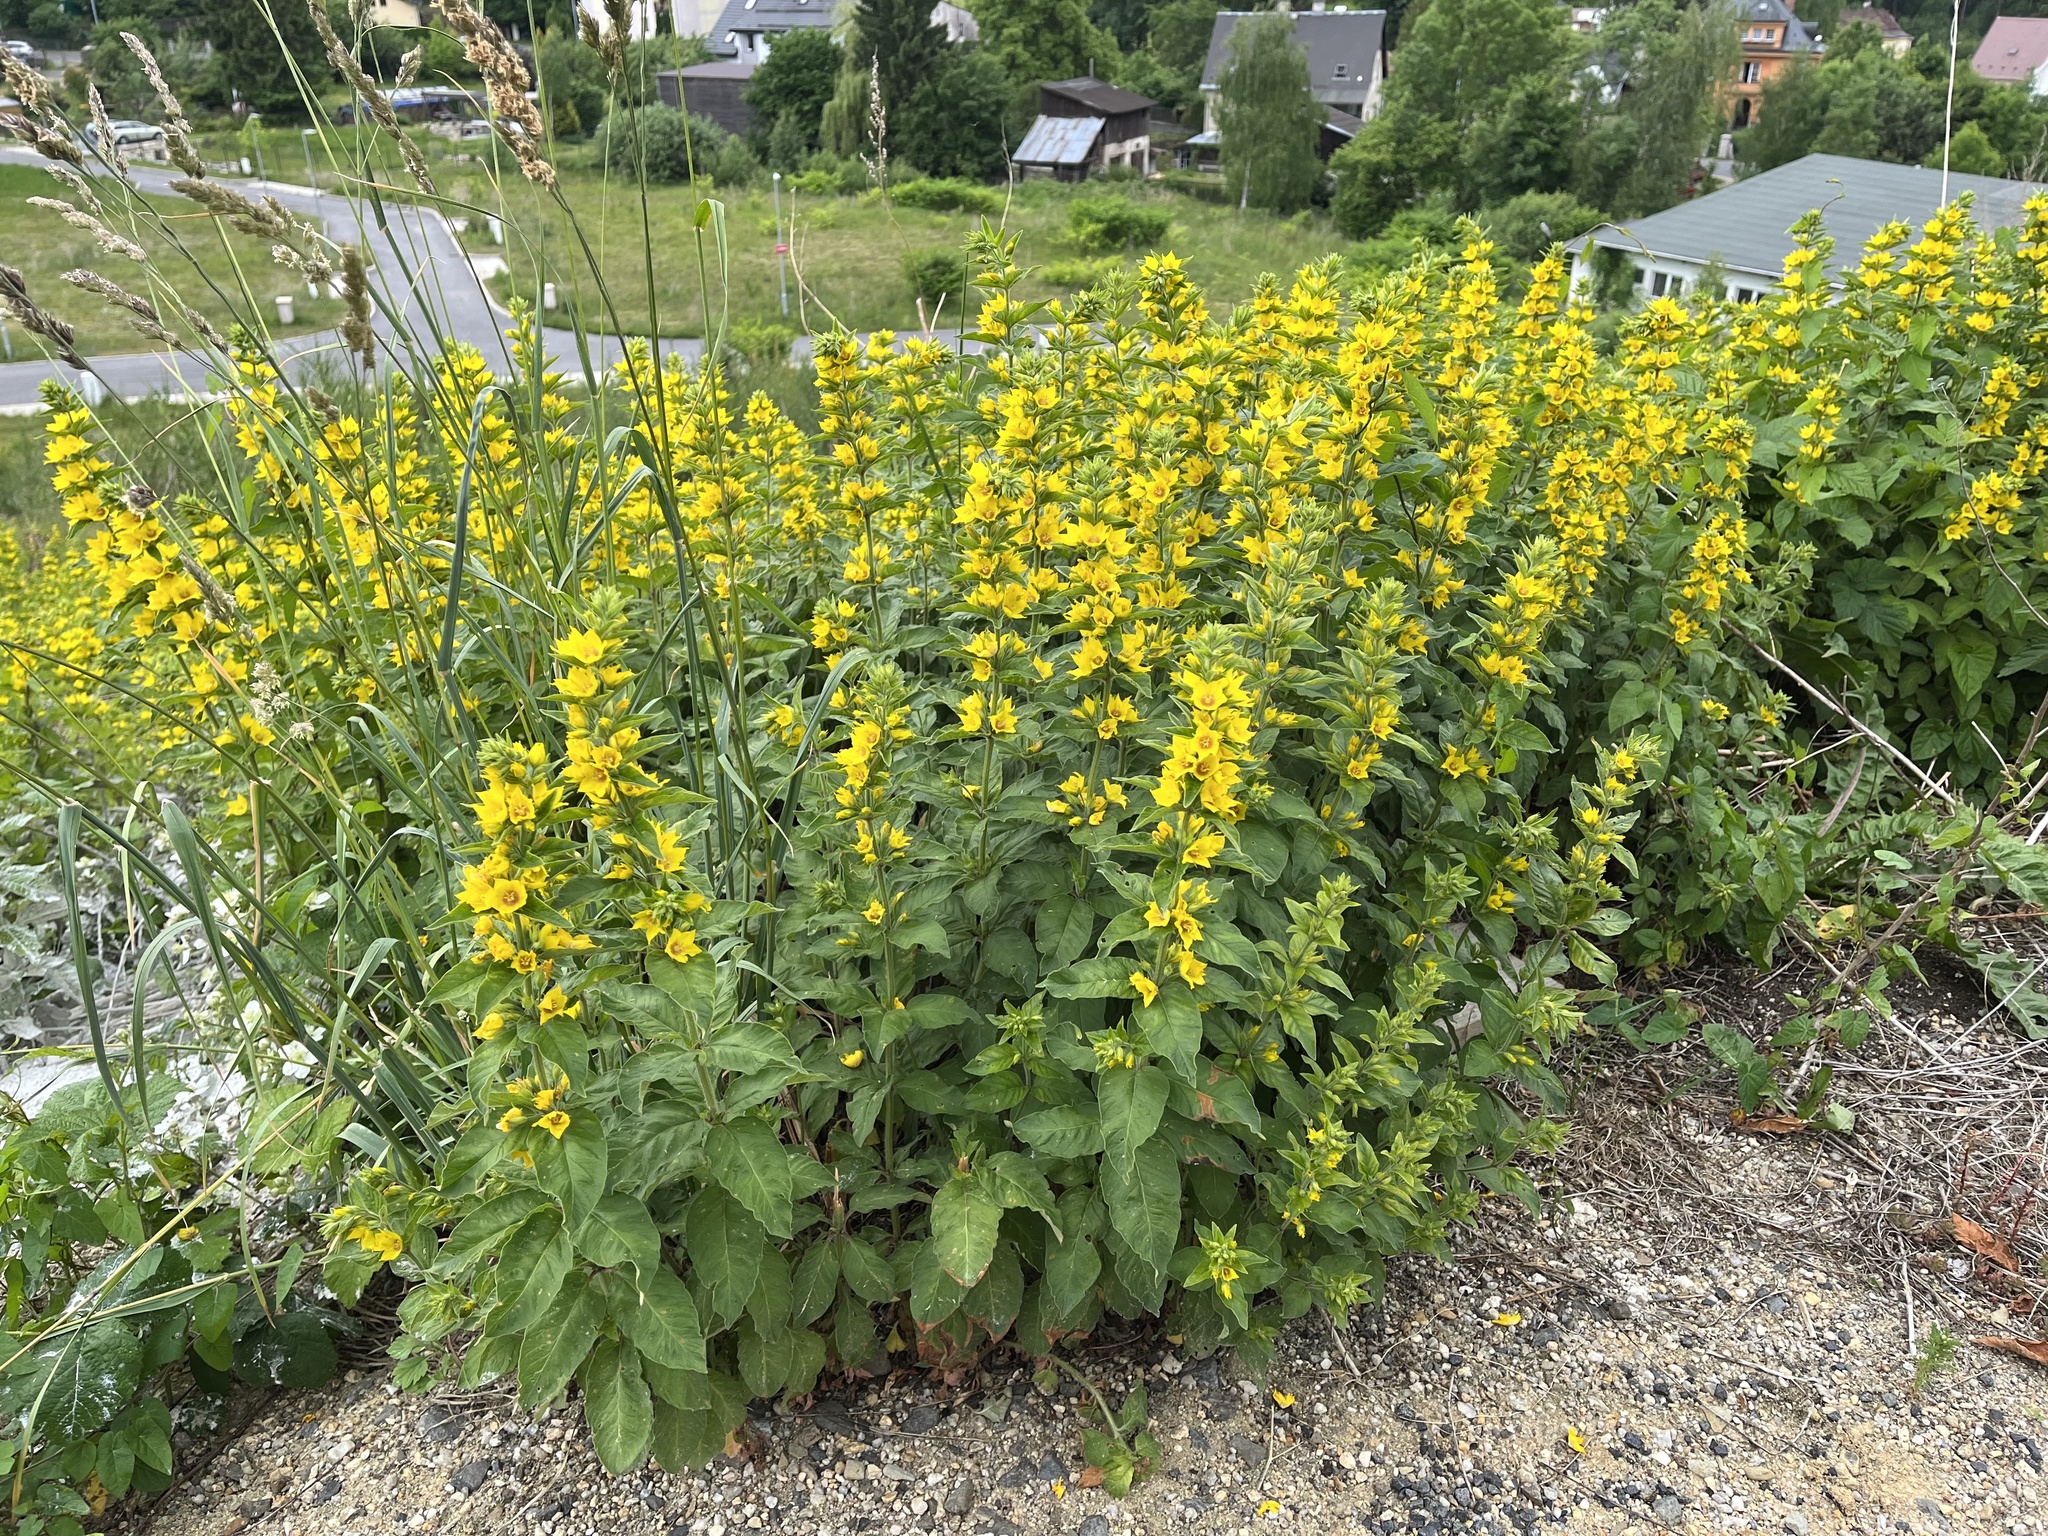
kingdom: Plantae
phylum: Tracheophyta
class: Magnoliopsida
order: Ericales
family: Primulaceae
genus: Lysimachia
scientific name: Lysimachia punctata
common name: Dotted loosestrife
